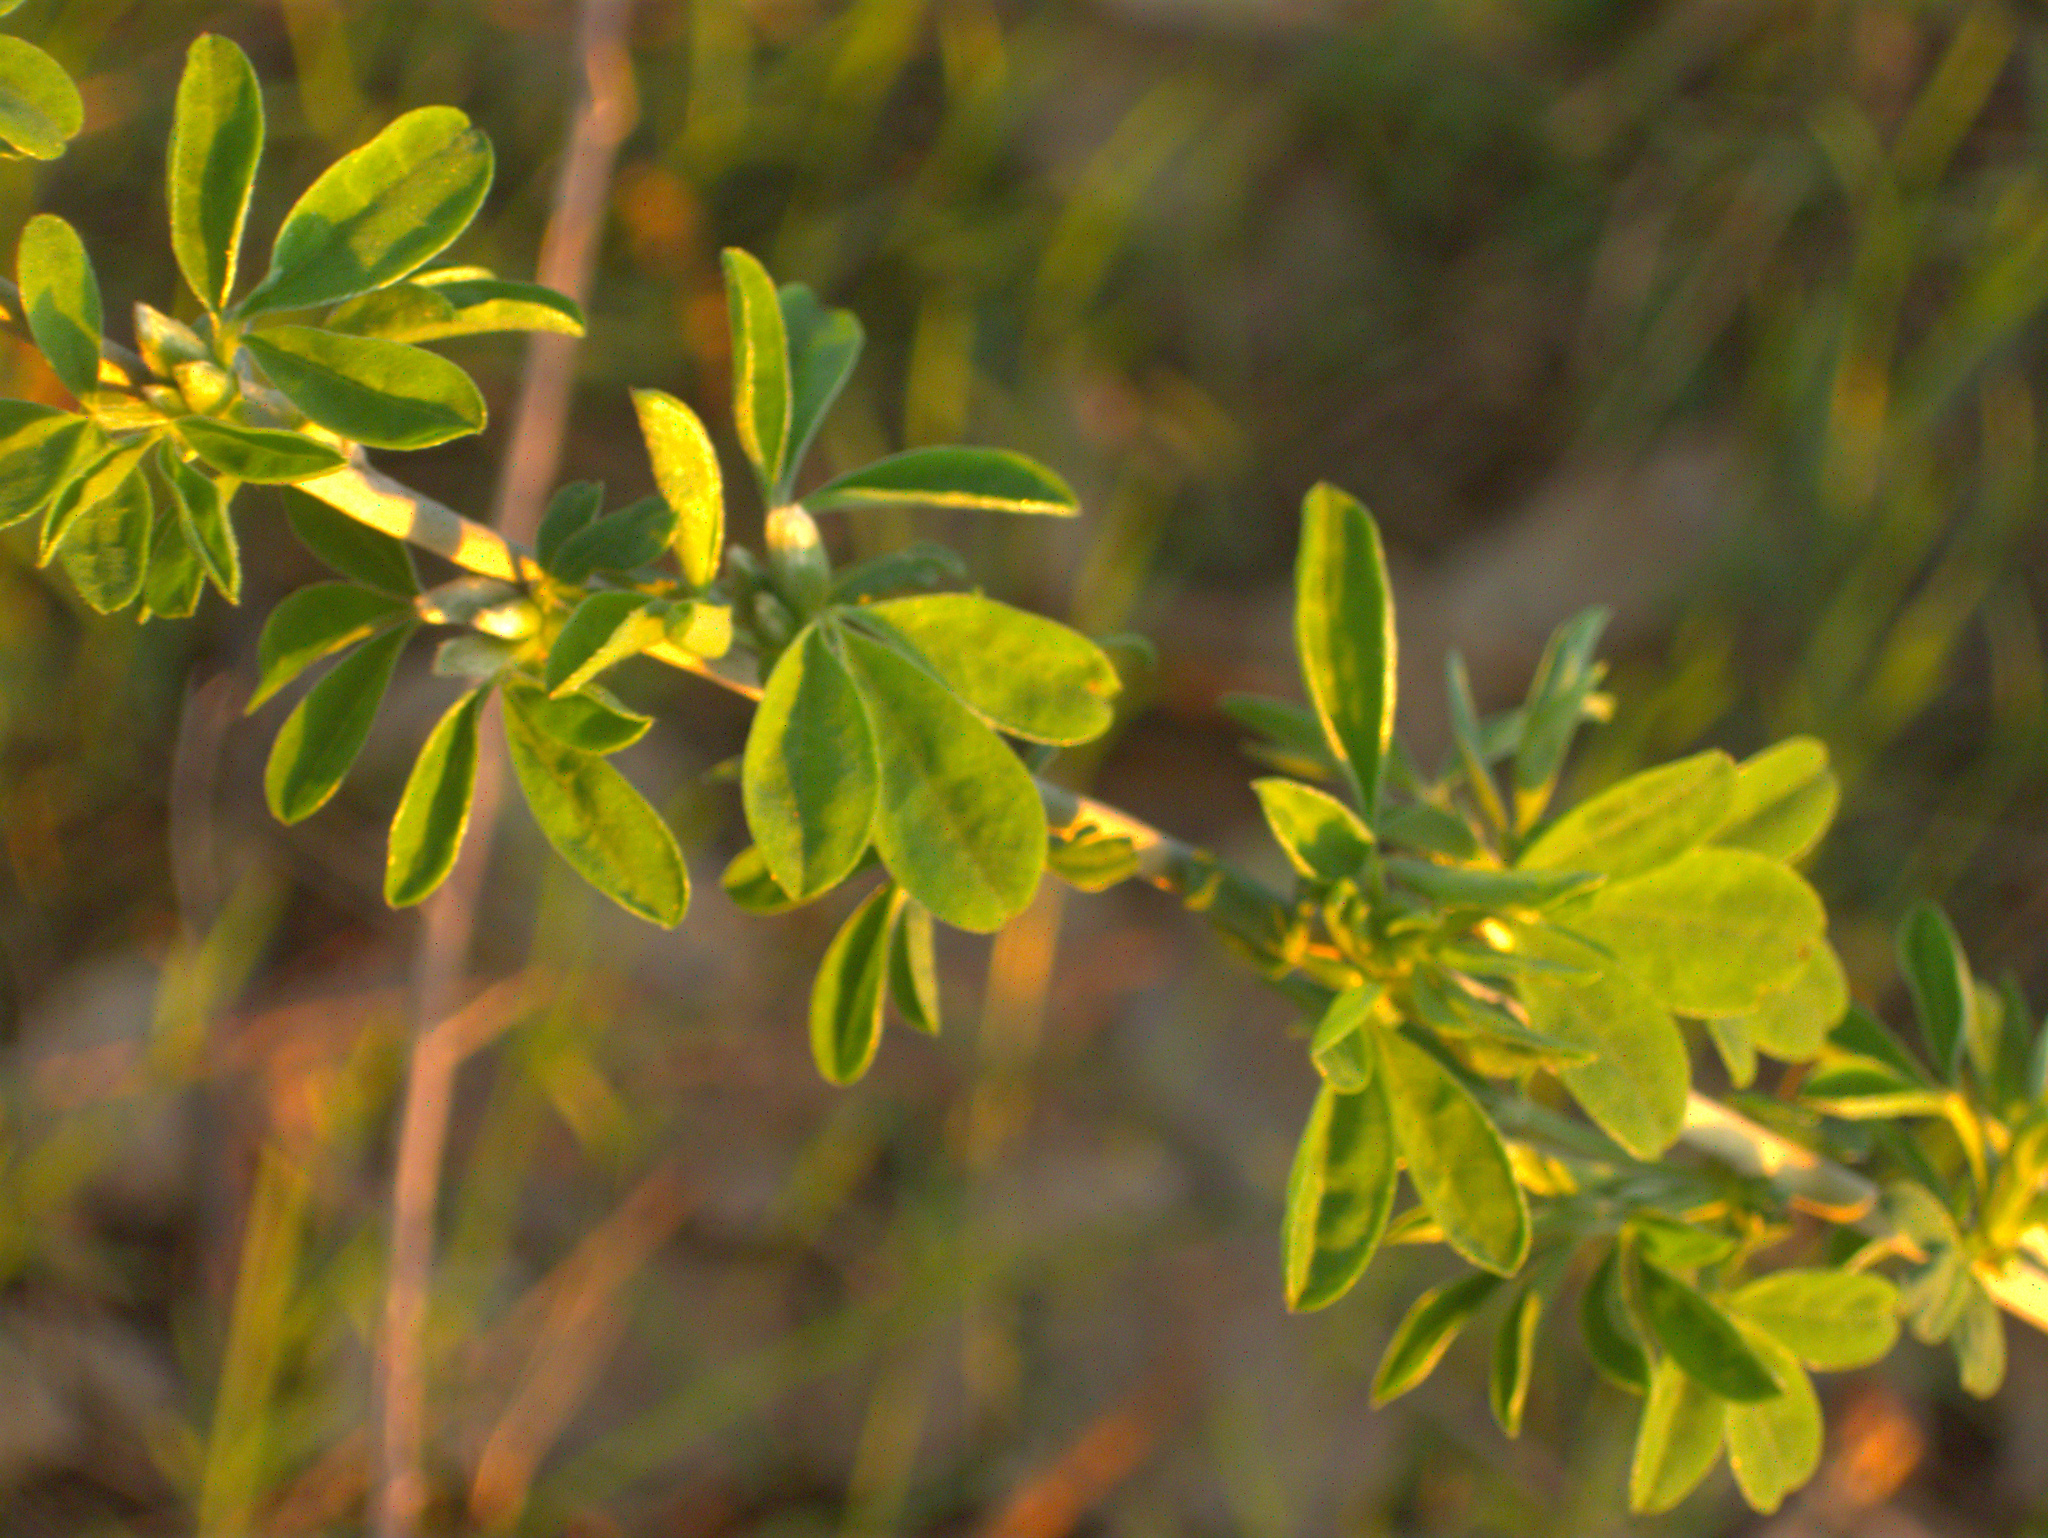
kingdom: Plantae
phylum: Tracheophyta
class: Magnoliopsida
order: Fabales
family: Fabaceae
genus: Chamaecytisus
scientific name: Chamaecytisus ruthenicus
